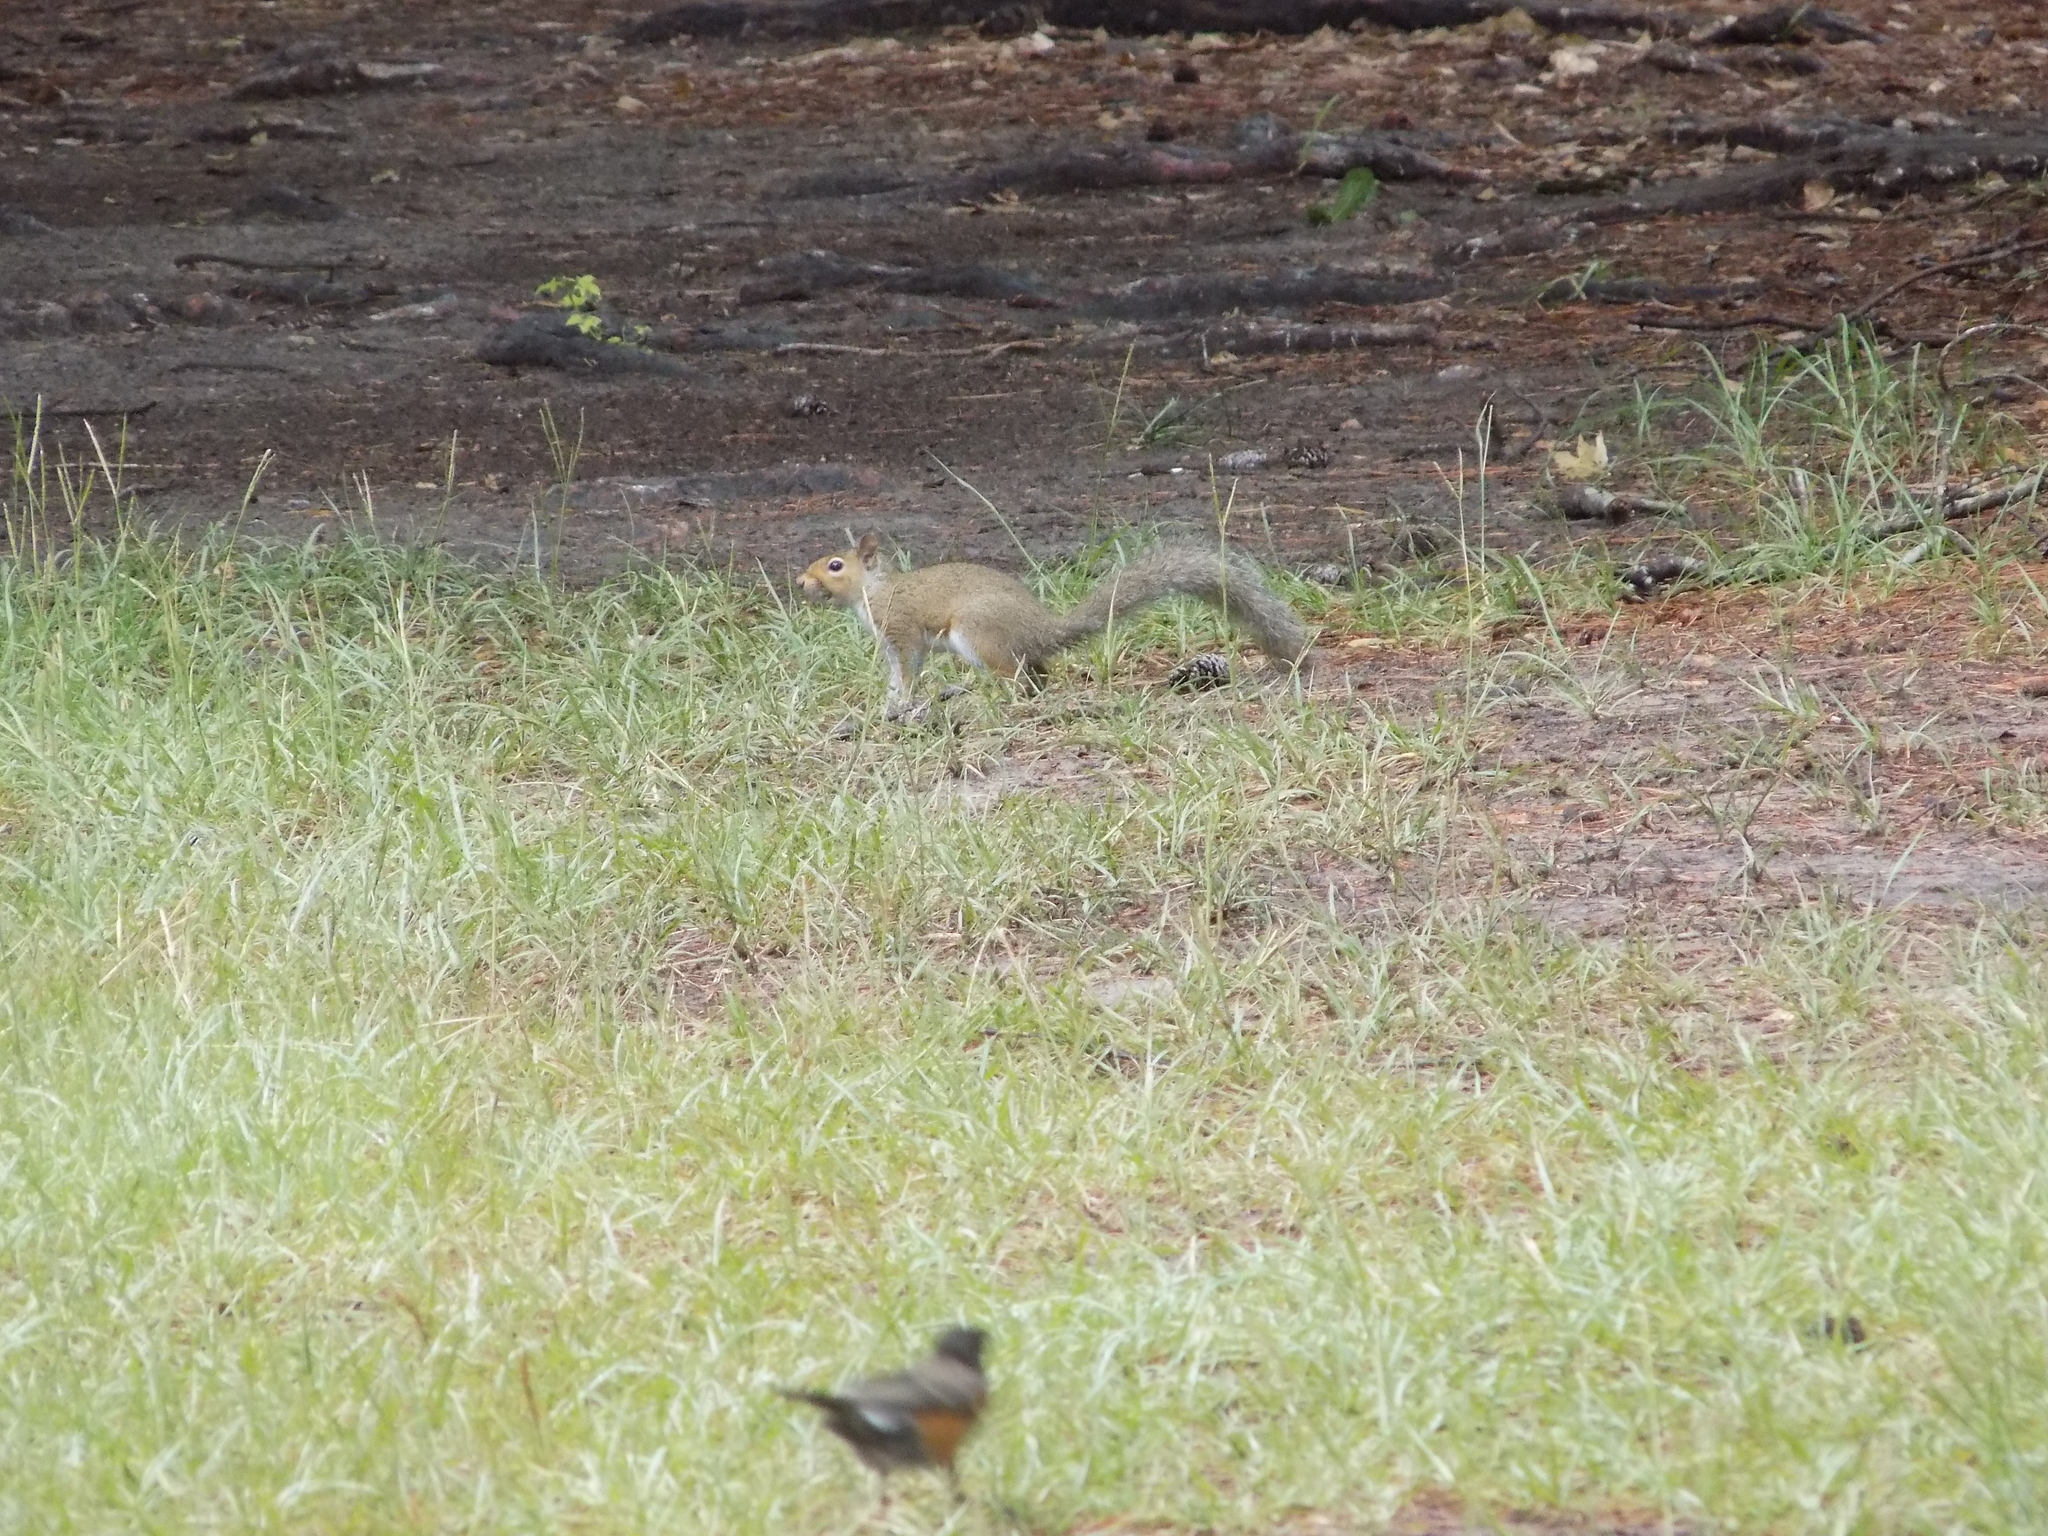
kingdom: Animalia
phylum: Chordata
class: Mammalia
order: Rodentia
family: Sciuridae
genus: Sciurus
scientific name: Sciurus carolinensis
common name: Eastern gray squirrel
